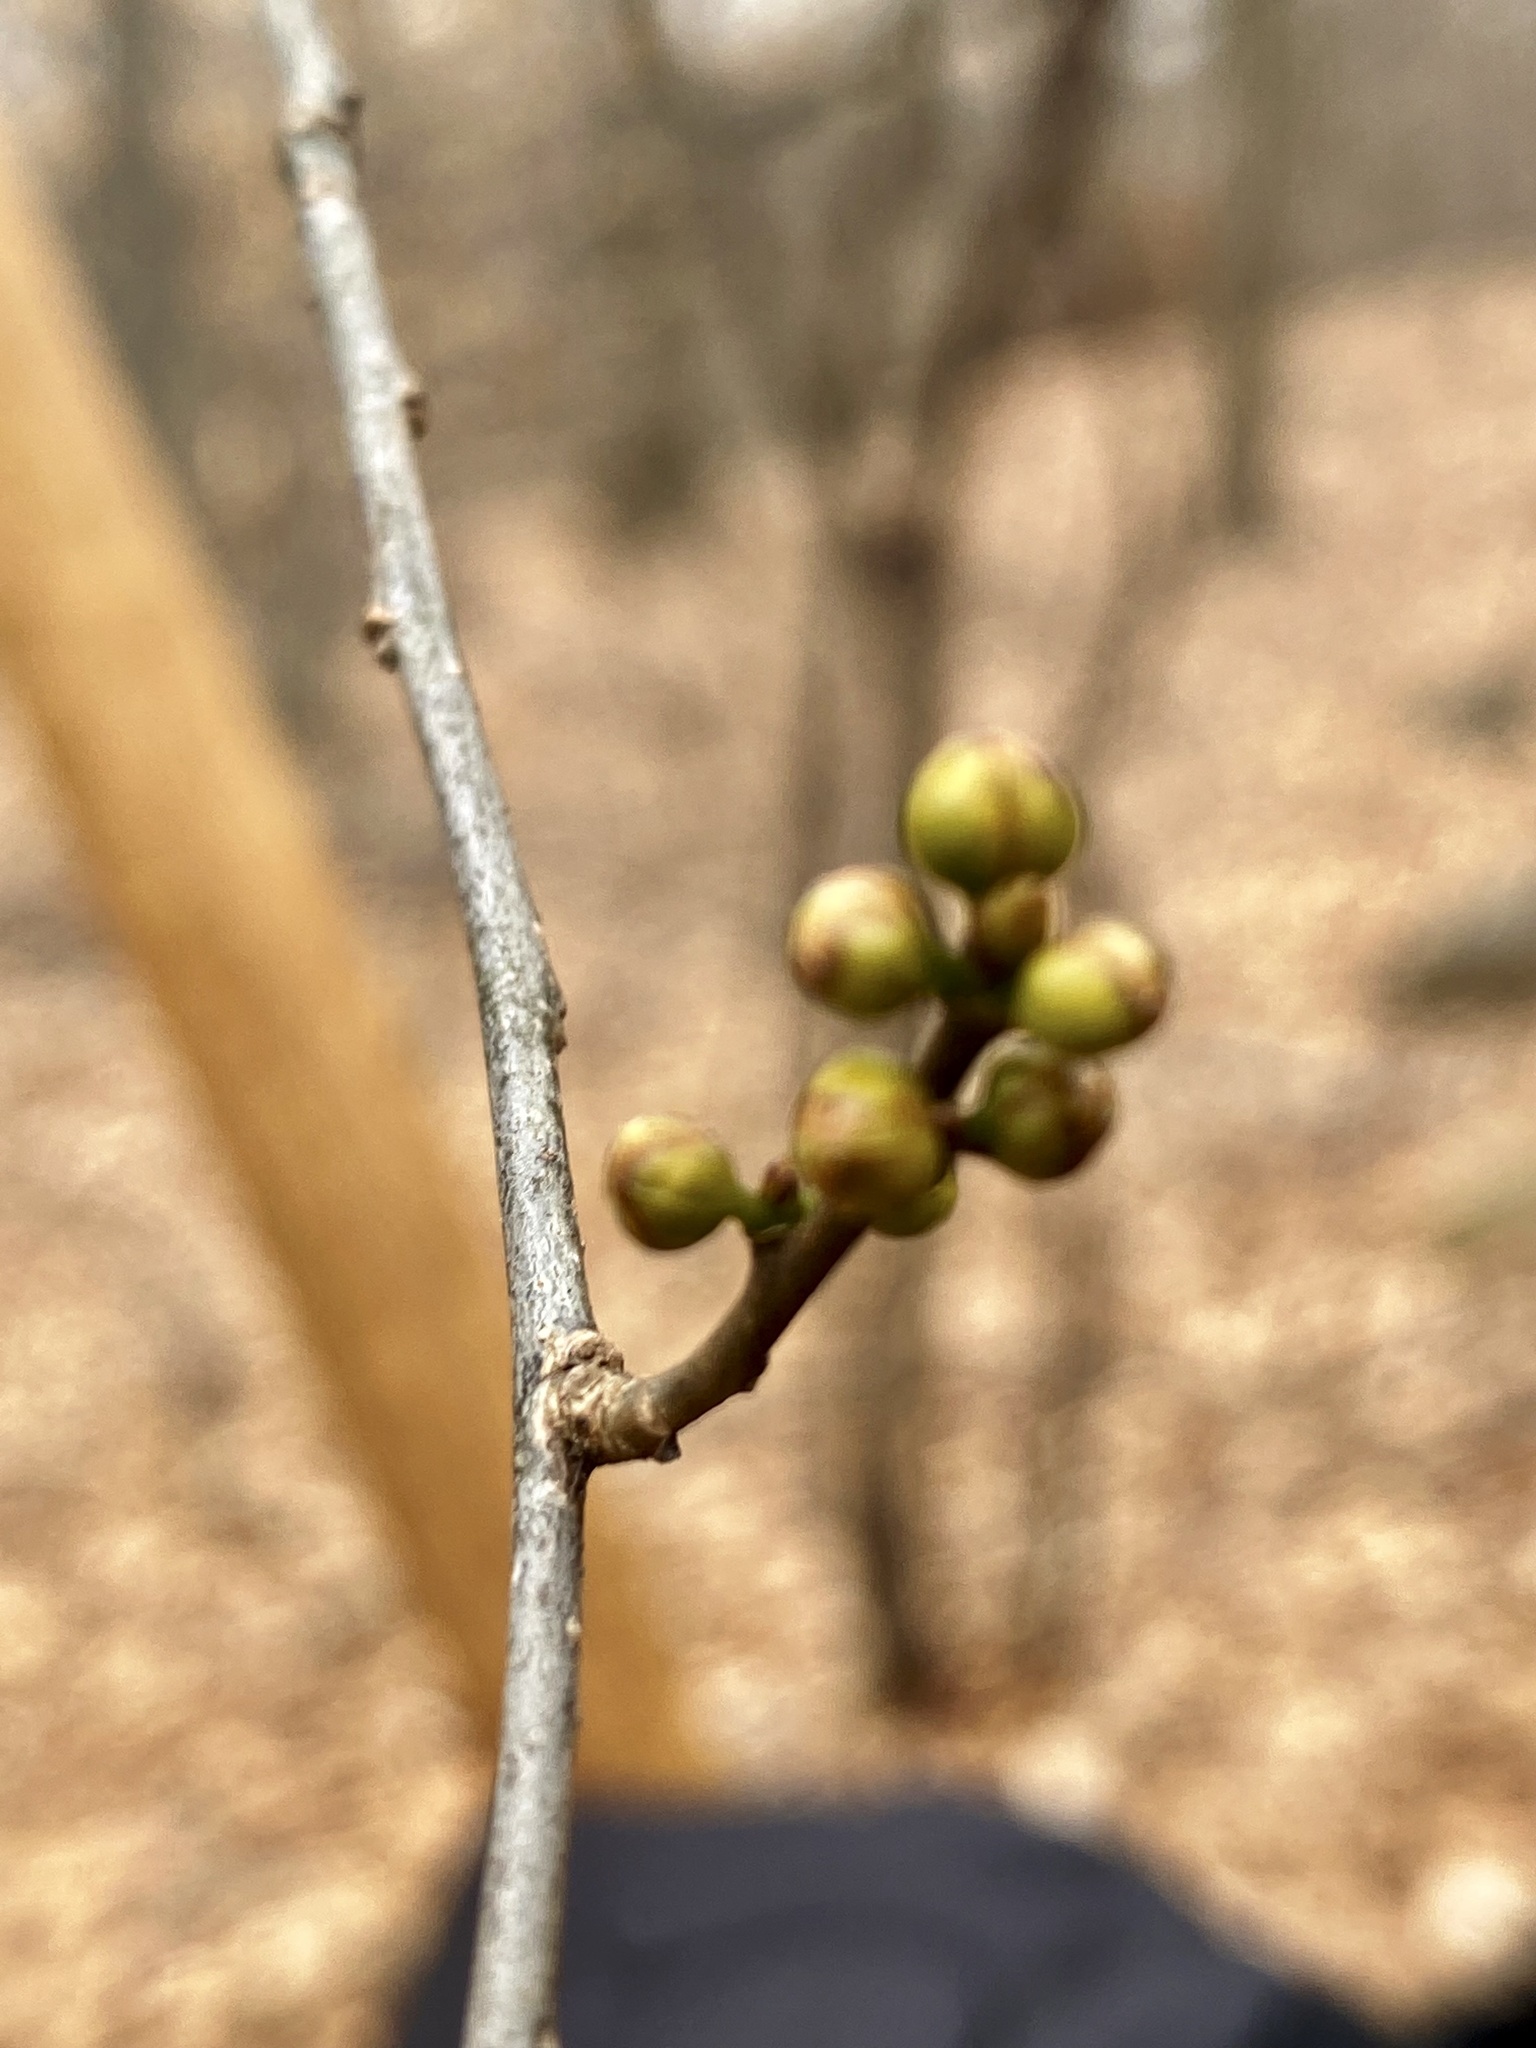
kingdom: Plantae
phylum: Tracheophyta
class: Magnoliopsida
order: Laurales
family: Lauraceae
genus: Lindera
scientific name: Lindera benzoin
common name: Spicebush
